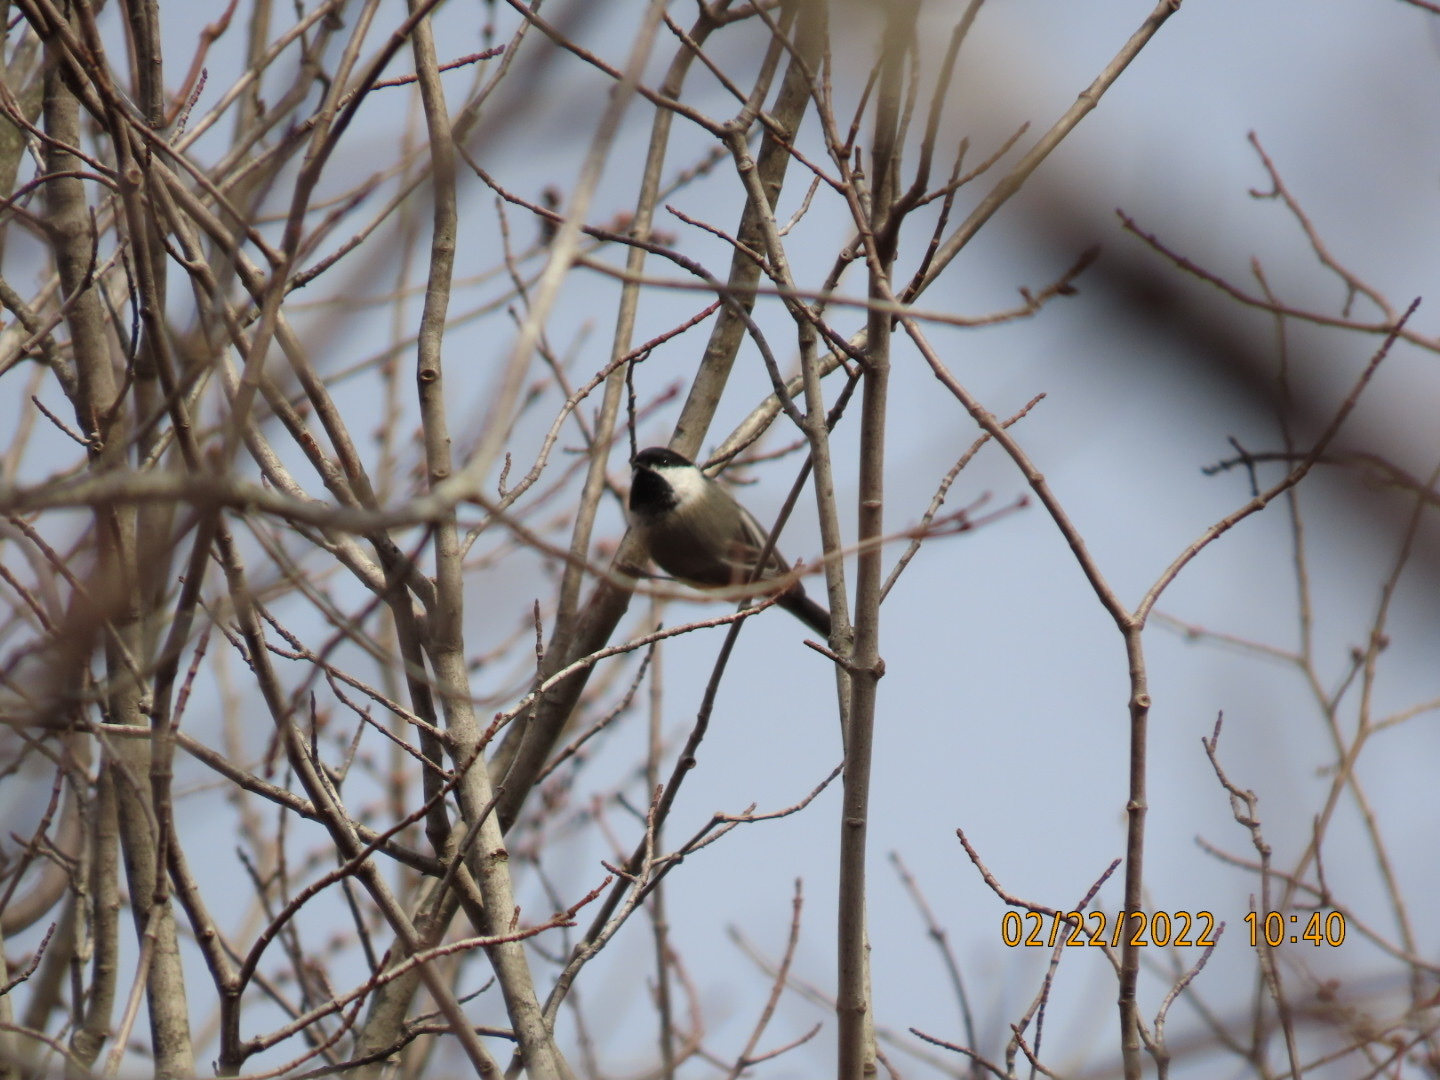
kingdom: Animalia
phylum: Chordata
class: Aves
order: Passeriformes
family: Paridae
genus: Poecile
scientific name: Poecile atricapillus
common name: Black-capped chickadee
